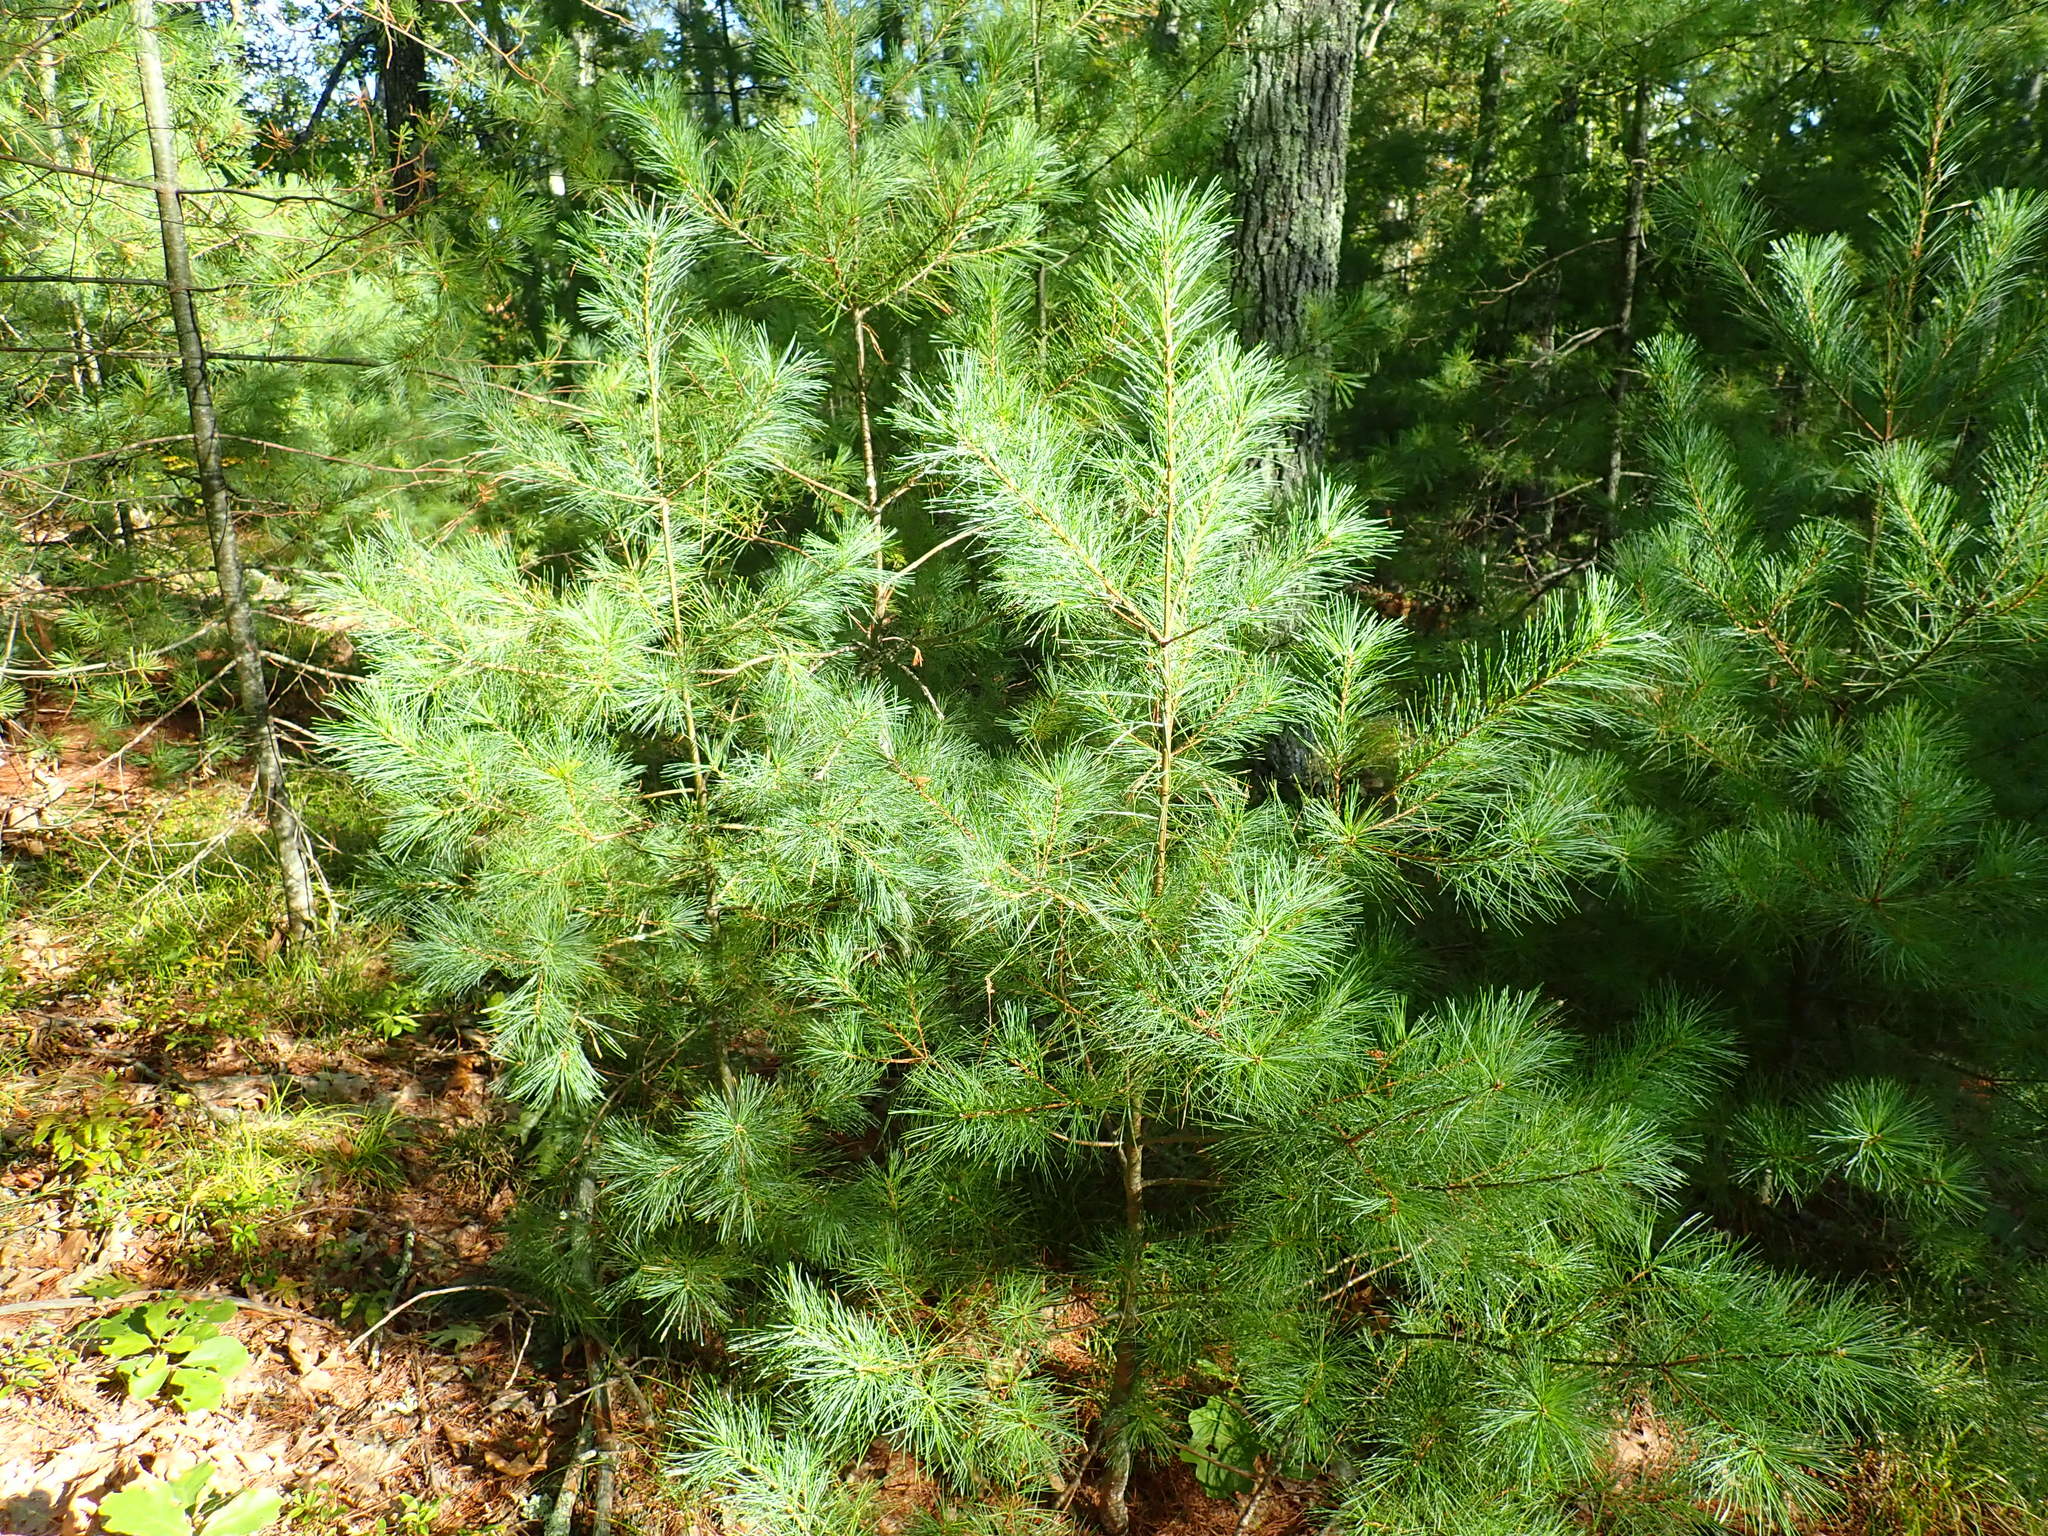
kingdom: Plantae
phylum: Tracheophyta
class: Pinopsida
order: Pinales
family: Pinaceae
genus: Pinus
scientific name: Pinus strobus
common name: Weymouth pine
